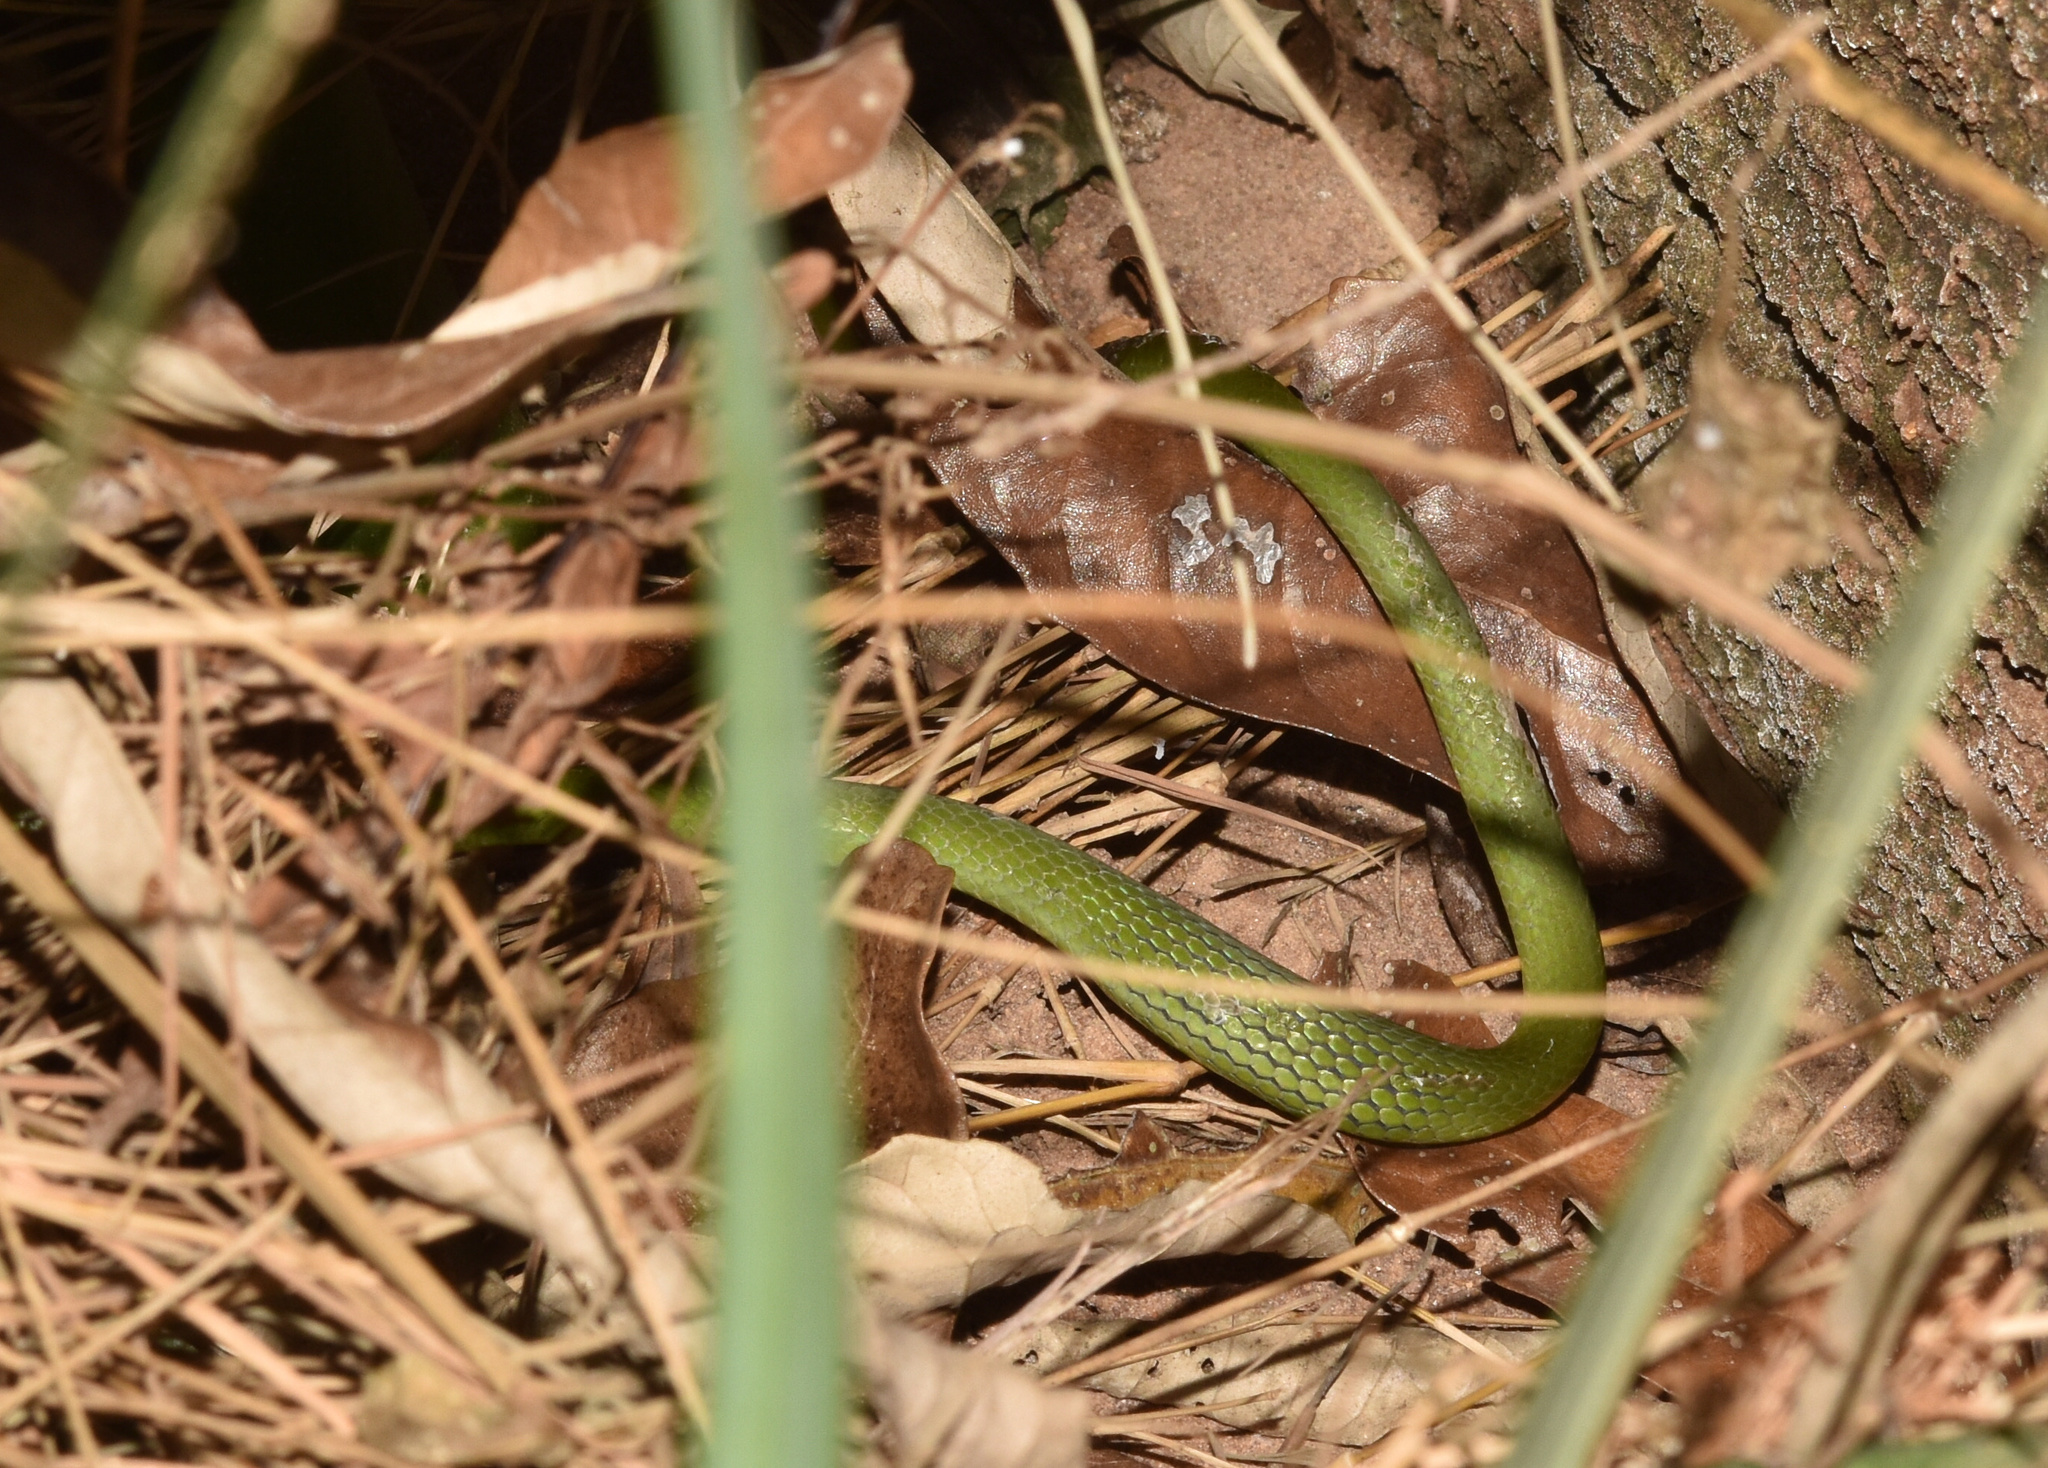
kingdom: Animalia
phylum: Chordata
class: Squamata
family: Colubridae
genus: Philothamnus
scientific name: Philothamnus hoplogaster
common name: Green water snake
